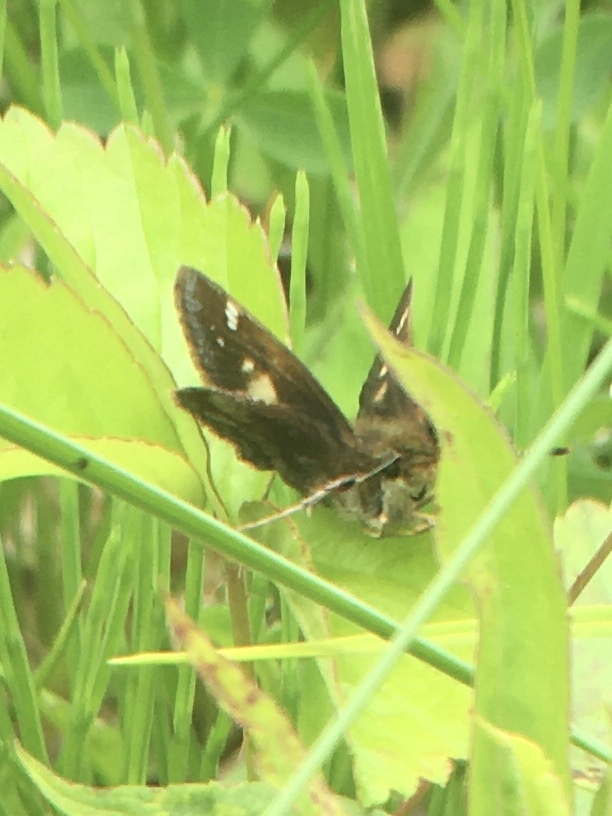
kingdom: Animalia
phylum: Arthropoda
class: Insecta
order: Lepidoptera
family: Hesperiidae
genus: Lon
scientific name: Lon hobomok
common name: Hobomok skipper
